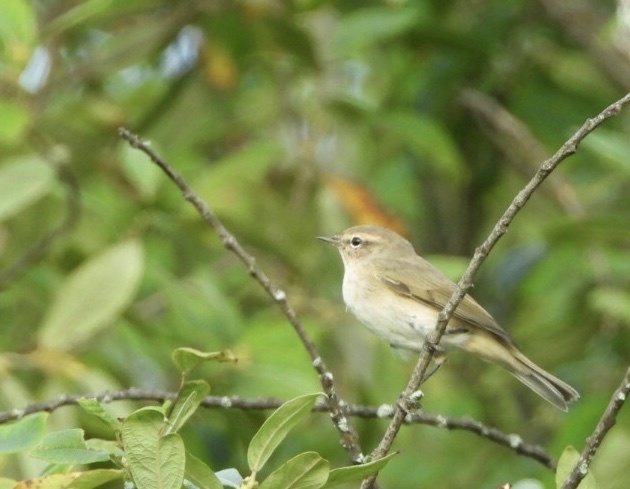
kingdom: Animalia
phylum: Chordata
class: Aves
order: Passeriformes
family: Phylloscopidae
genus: Phylloscopus
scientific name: Phylloscopus collybita
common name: Common chiffchaff
